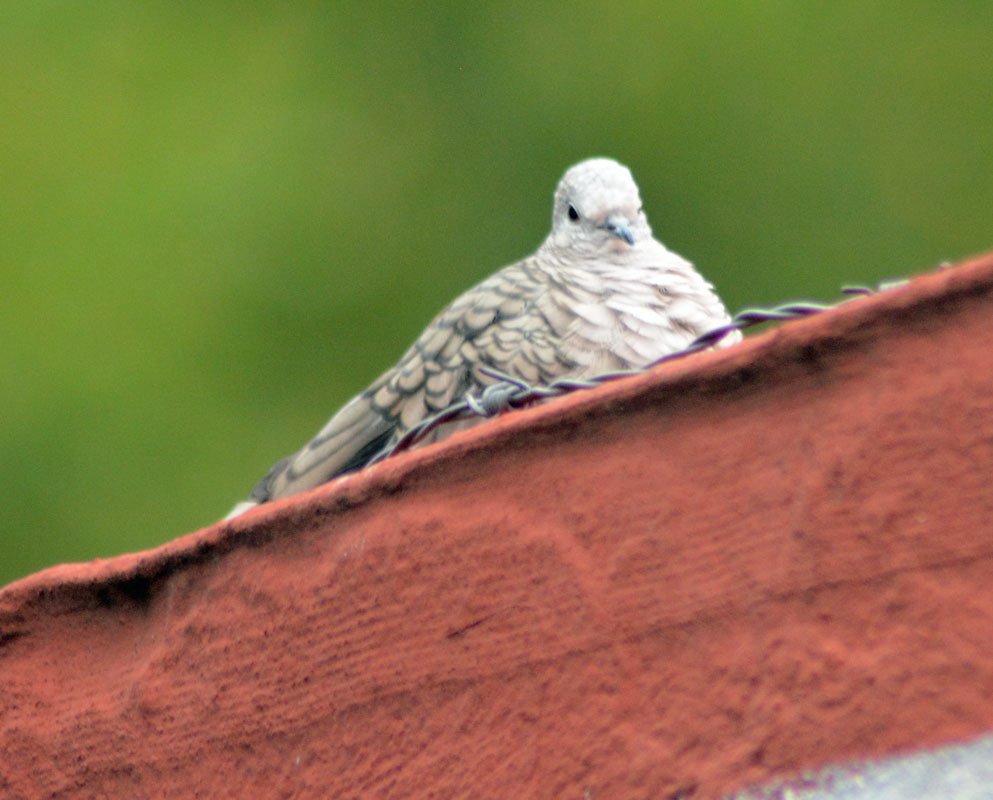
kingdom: Animalia
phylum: Chordata
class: Aves
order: Columbiformes
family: Columbidae
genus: Columbina
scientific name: Columbina inca
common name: Inca dove
